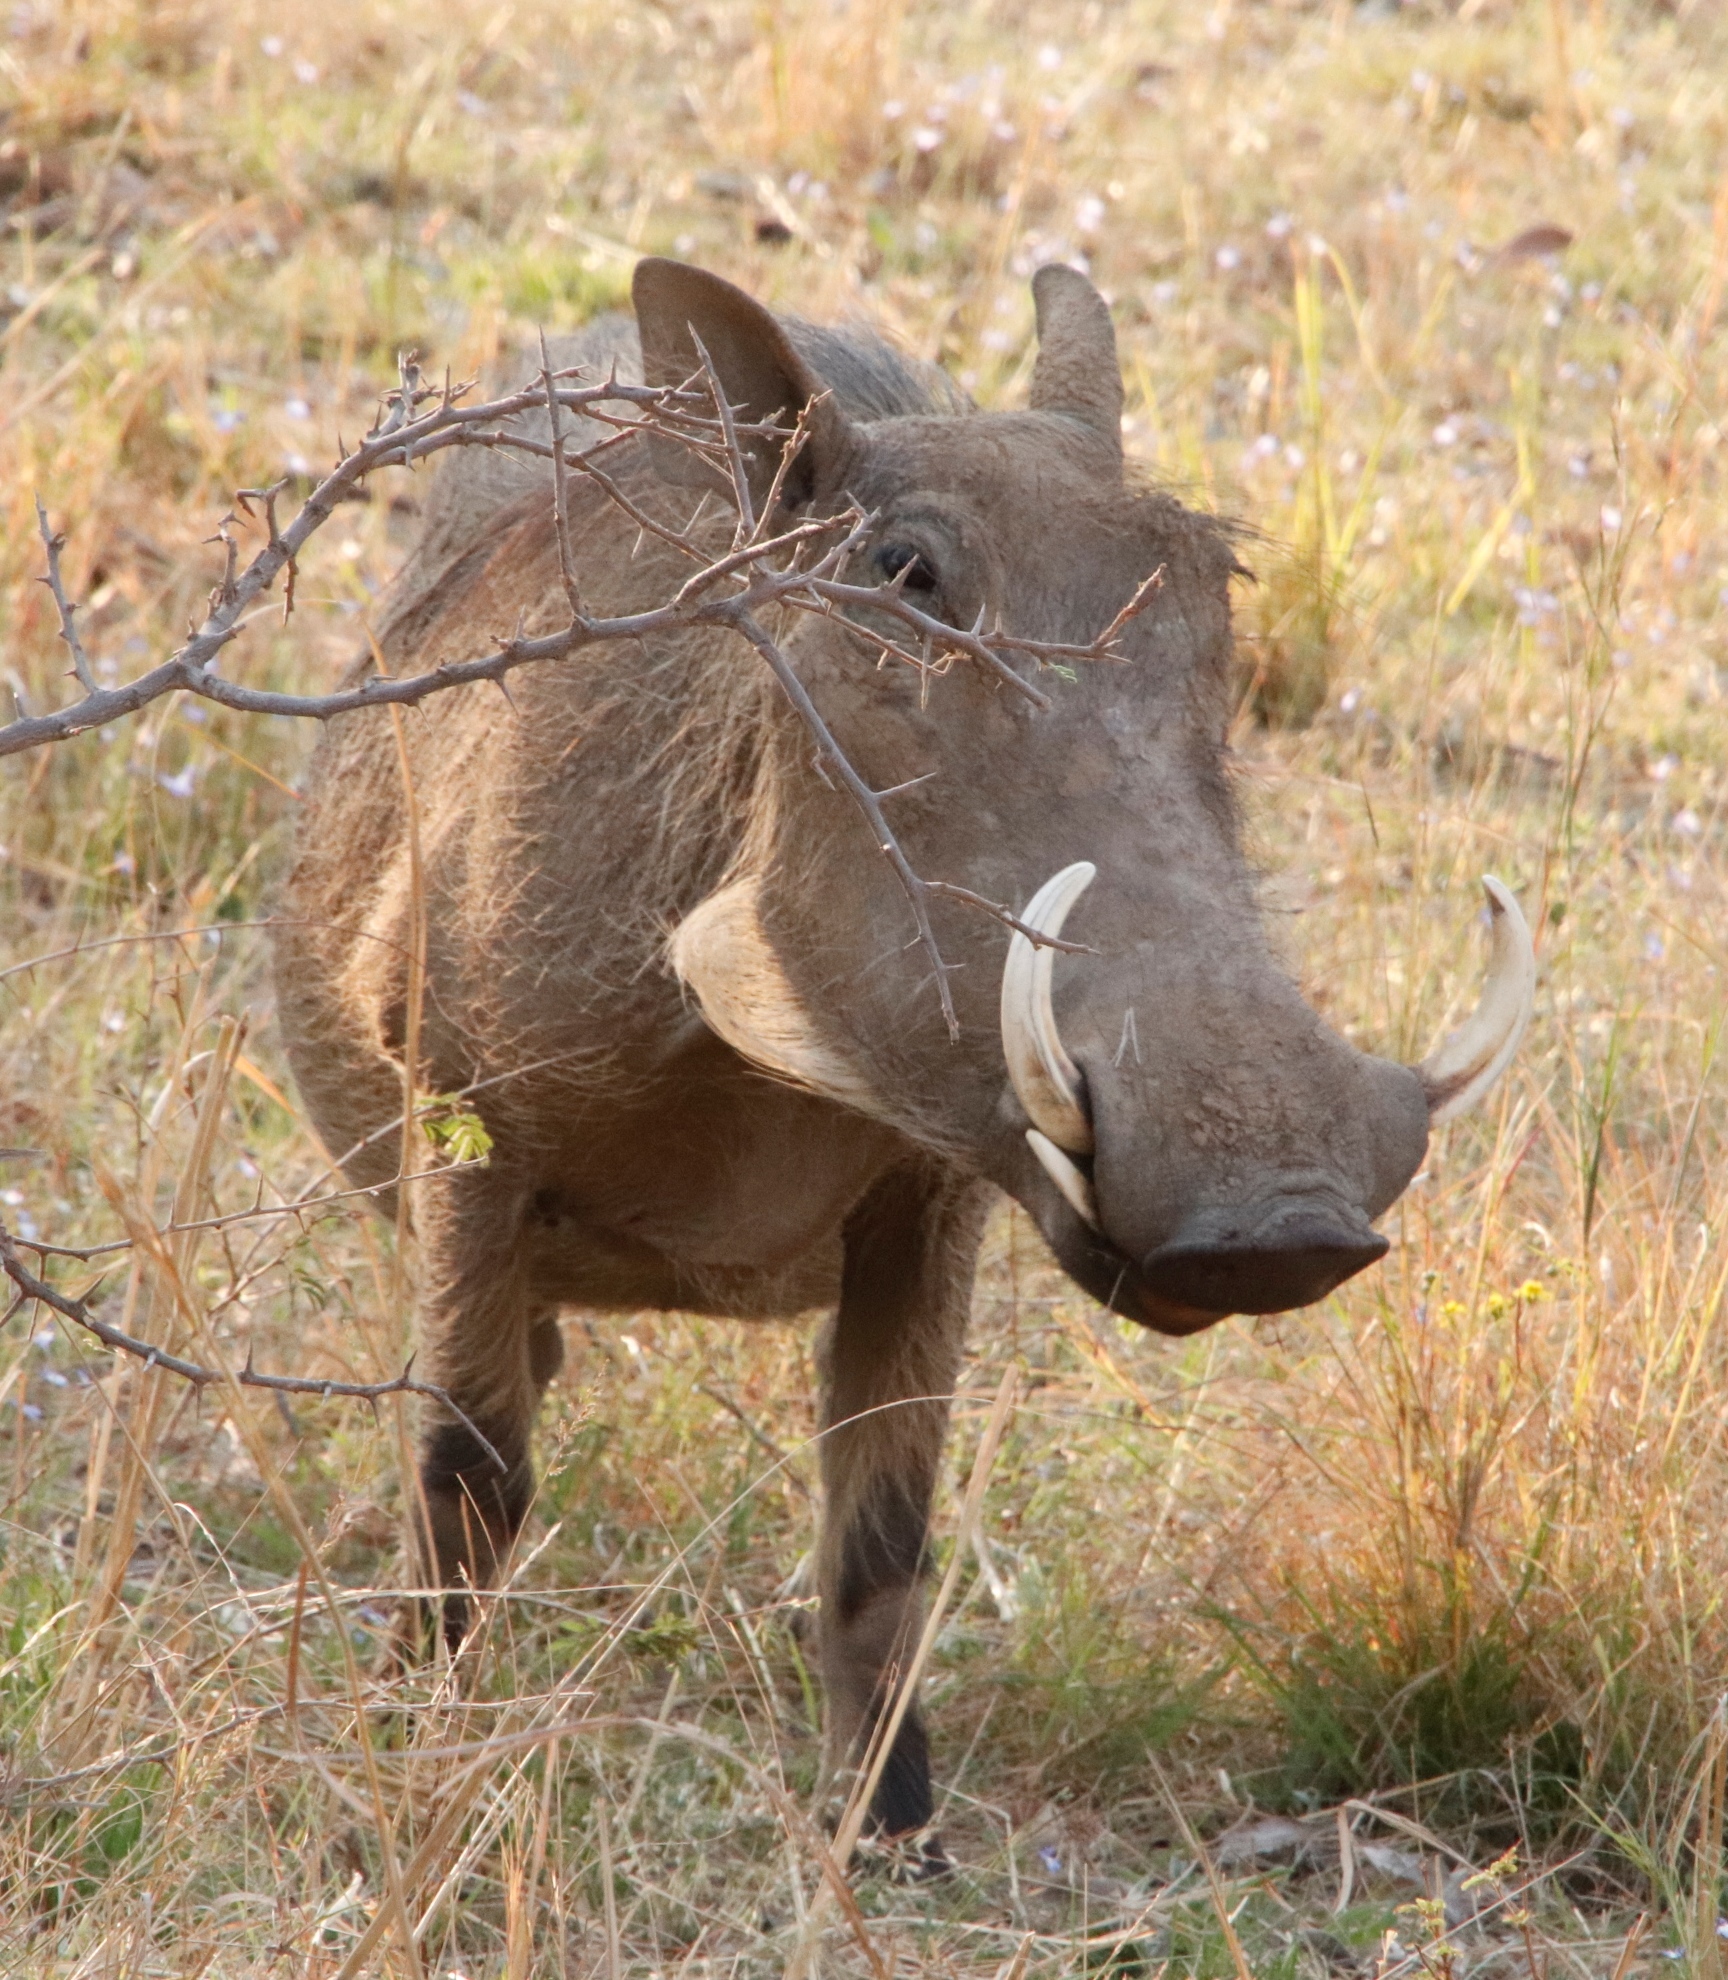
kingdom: Animalia
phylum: Chordata
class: Mammalia
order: Artiodactyla
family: Suidae
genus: Phacochoerus
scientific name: Phacochoerus africanus
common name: Common warthog
